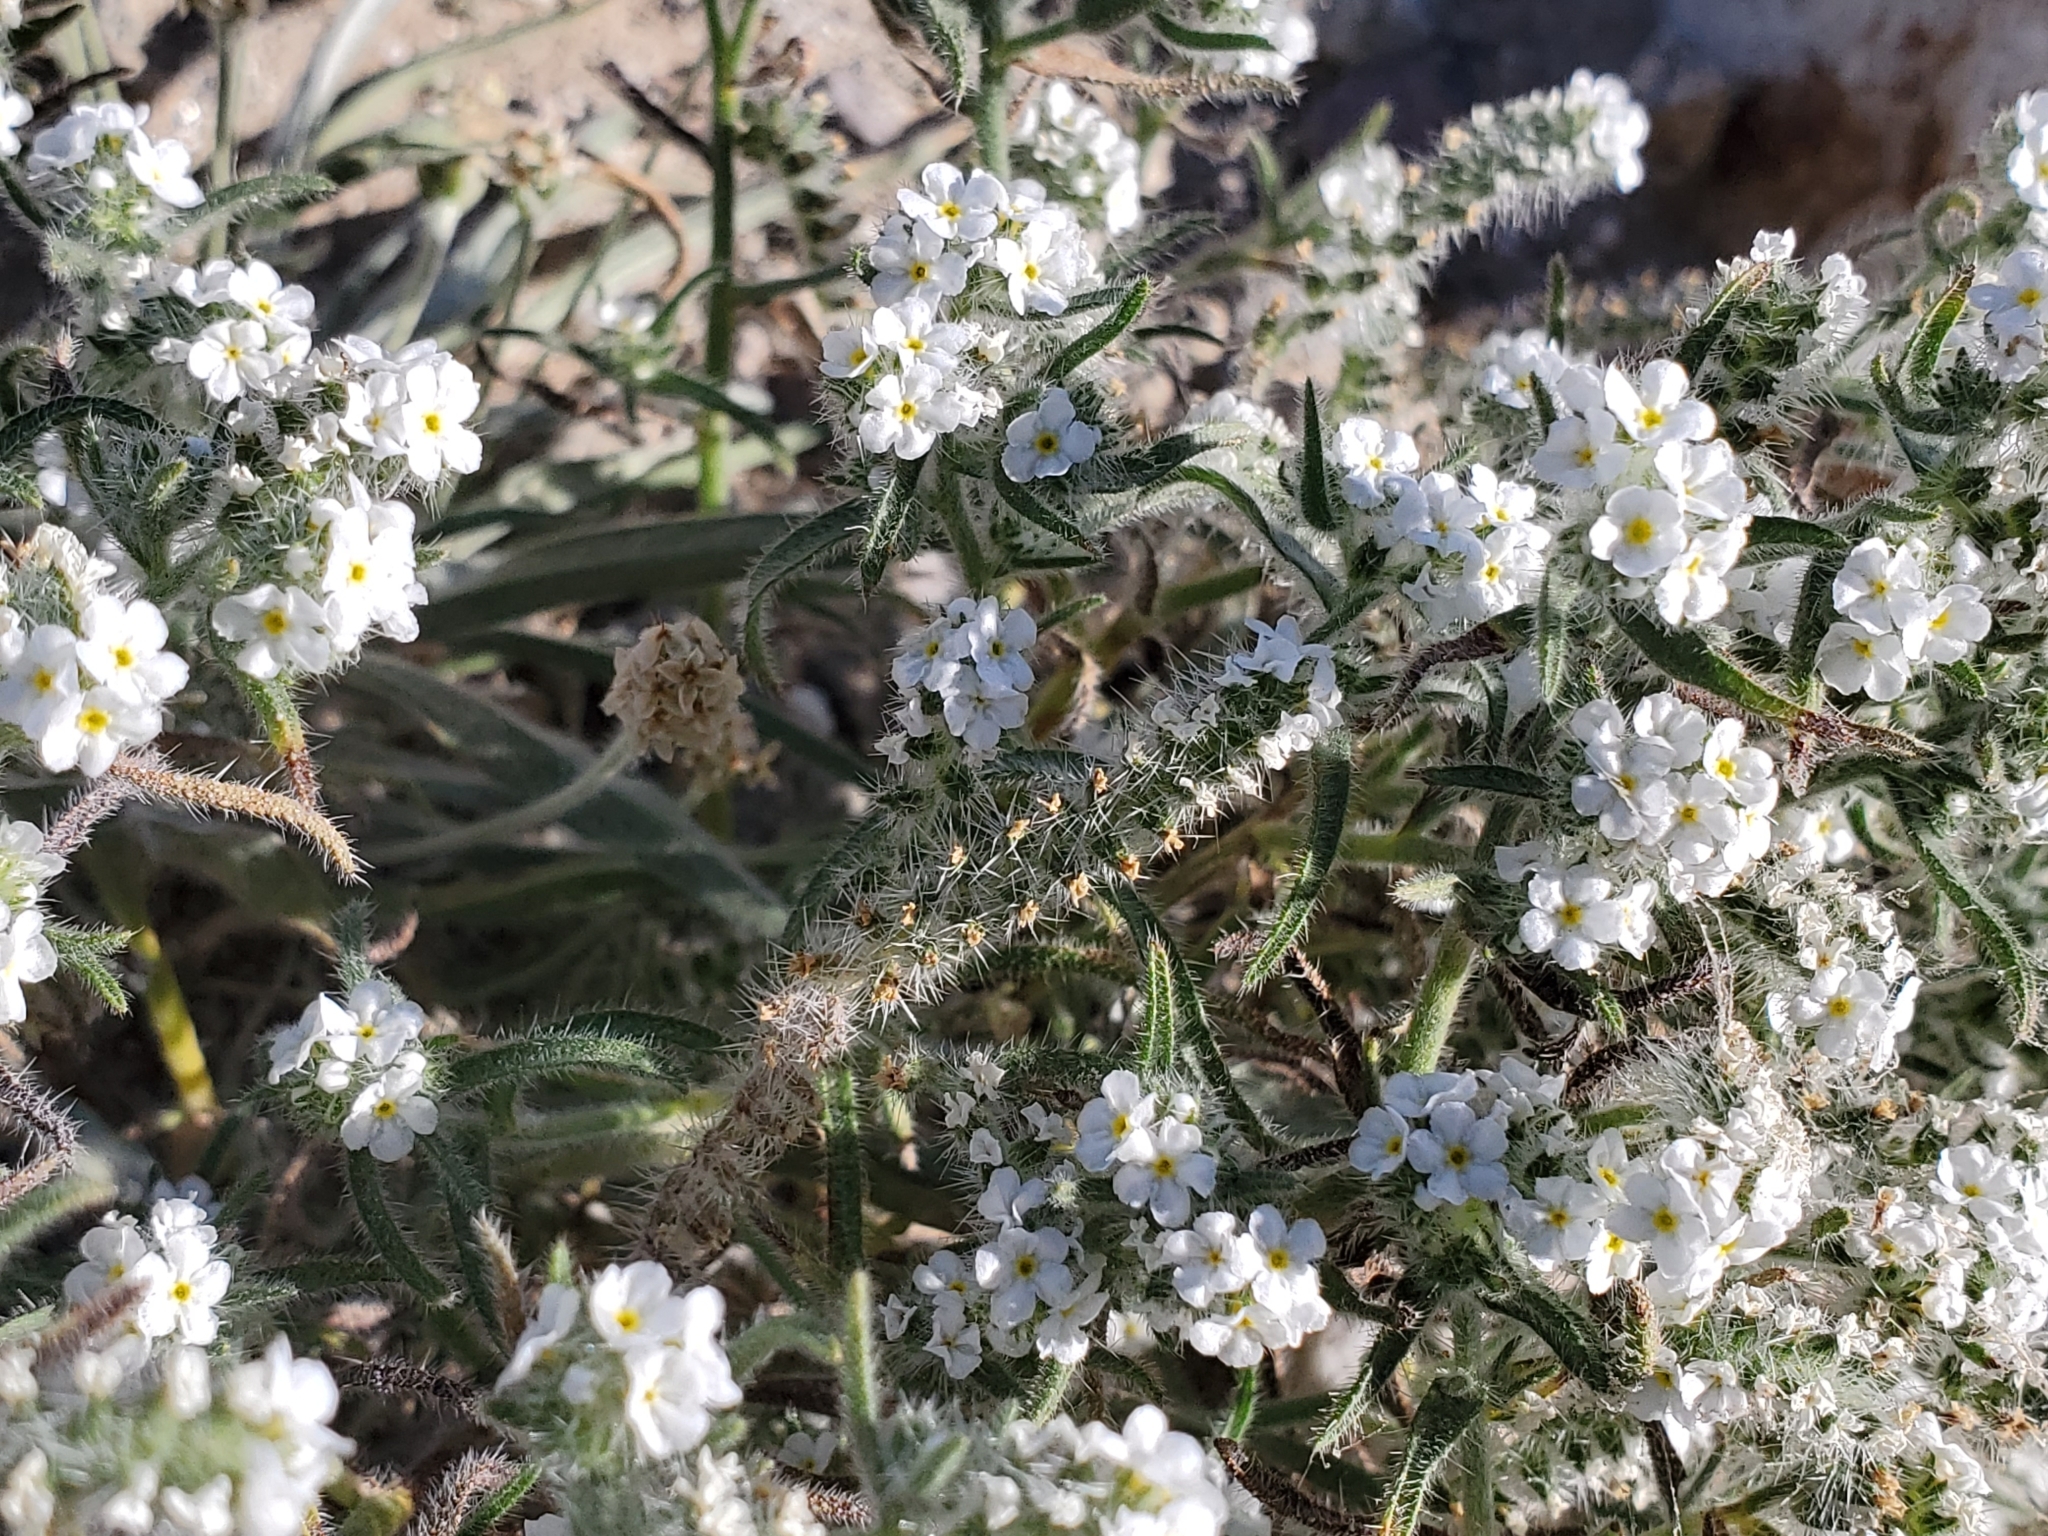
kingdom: Plantae
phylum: Tracheophyta
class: Magnoliopsida
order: Boraginales
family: Boraginaceae
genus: Johnstonella
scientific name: Johnstonella angustifolia
